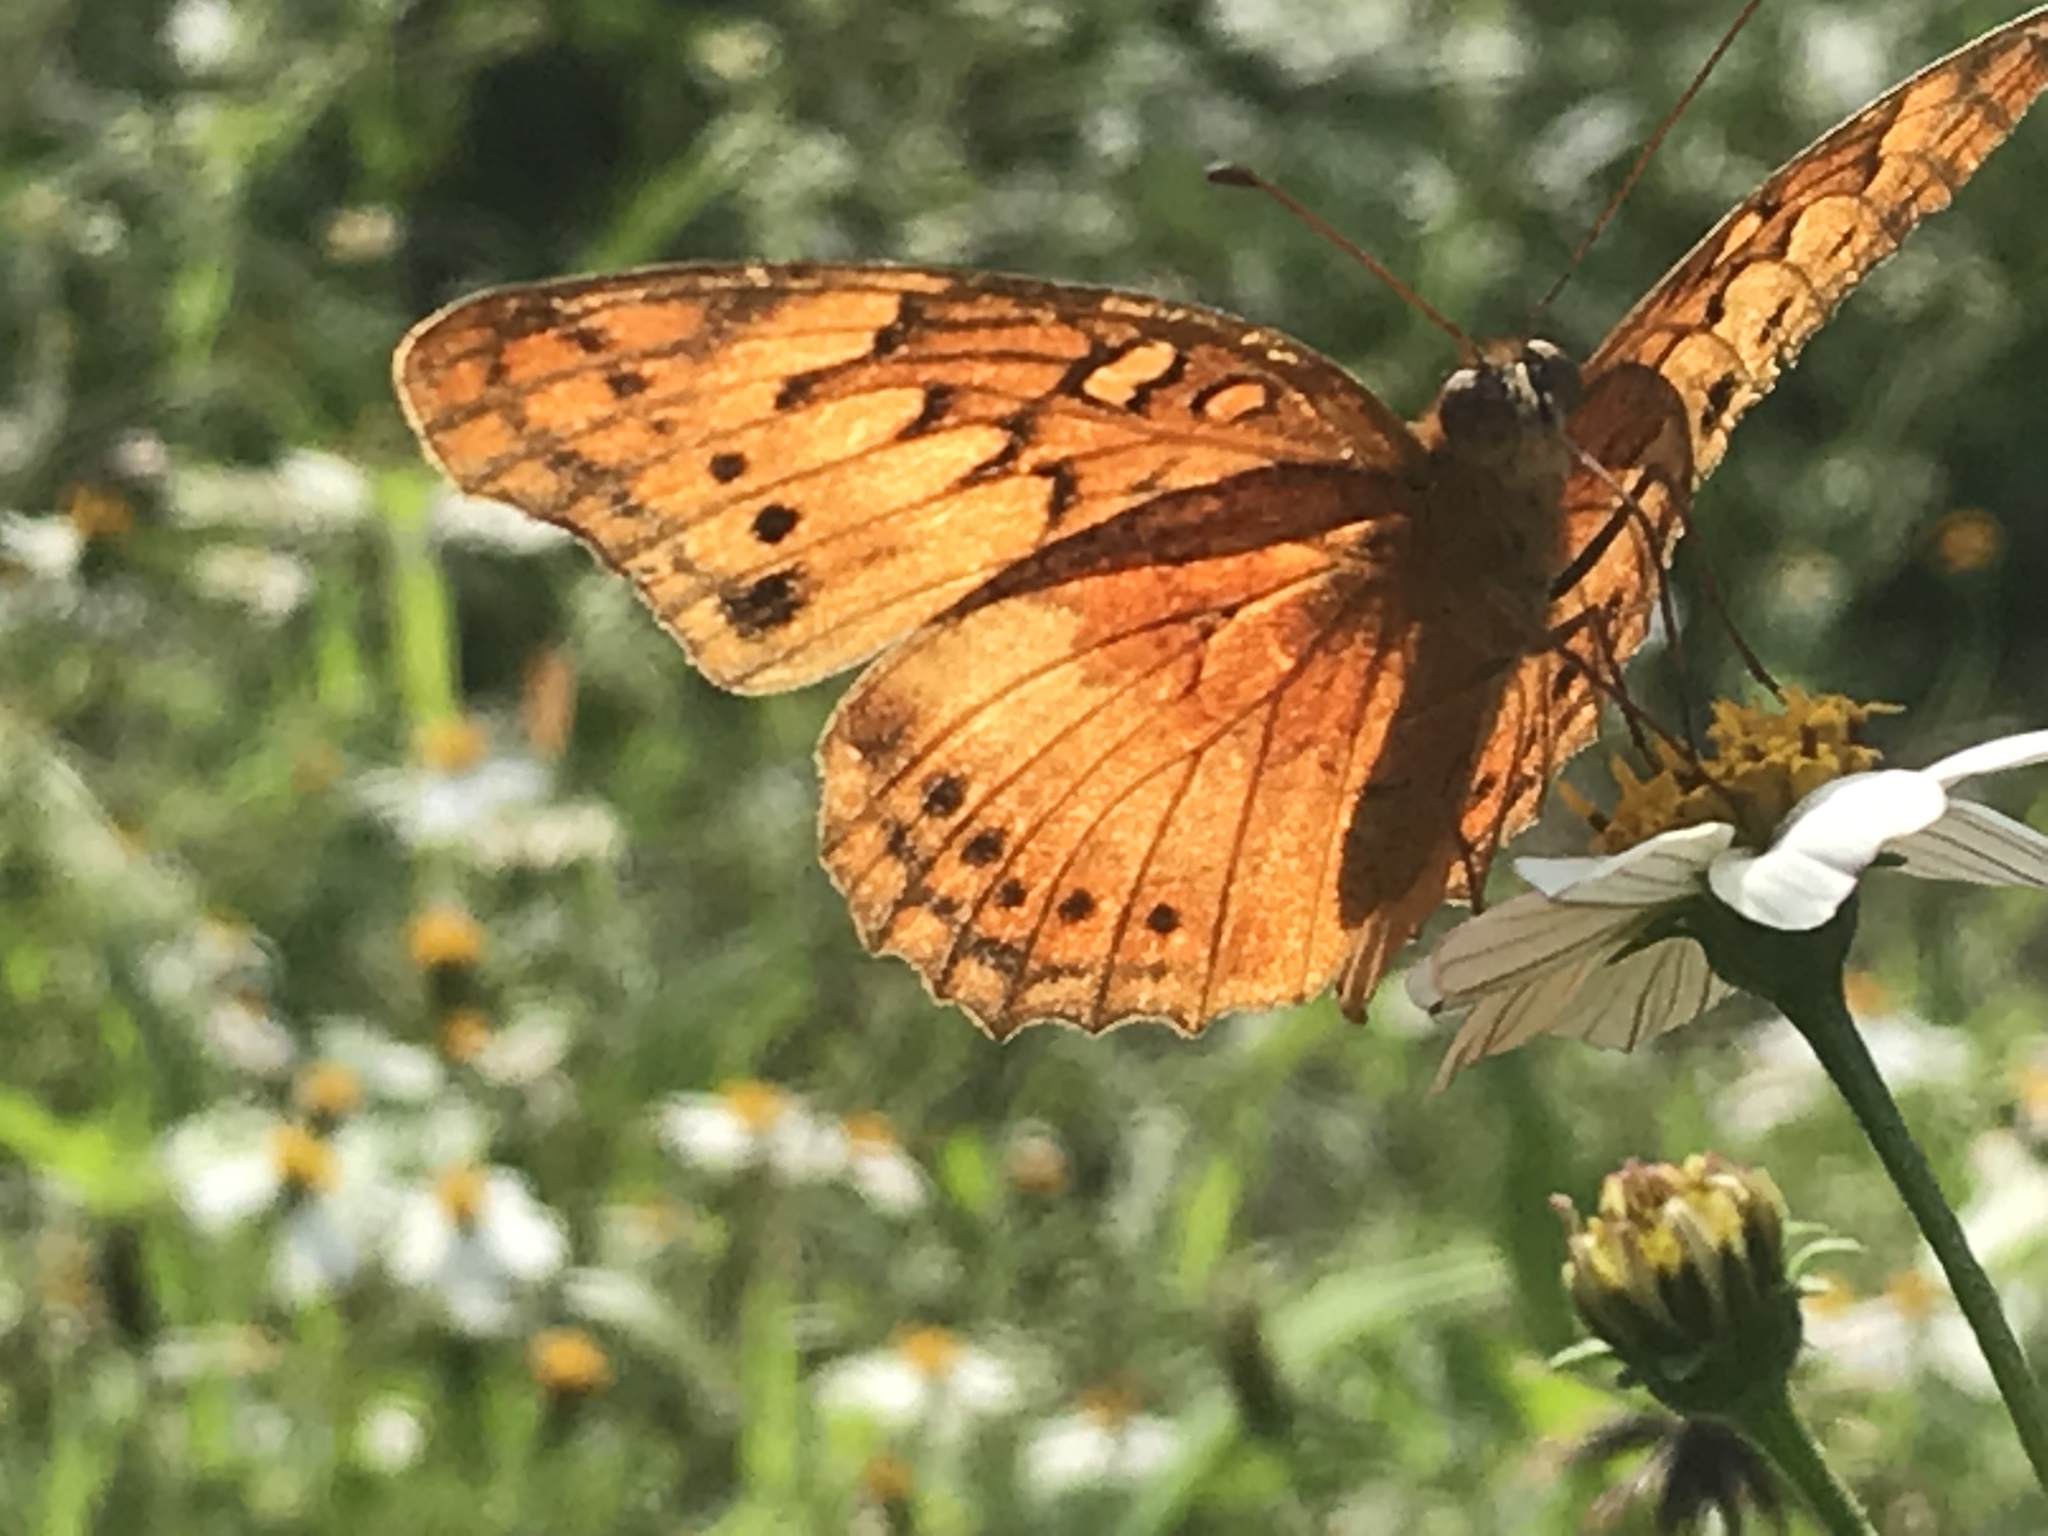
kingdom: Animalia
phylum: Arthropoda
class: Insecta
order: Lepidoptera
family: Nymphalidae
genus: Euptoieta
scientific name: Euptoieta hegesia
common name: Mexican fritillary
